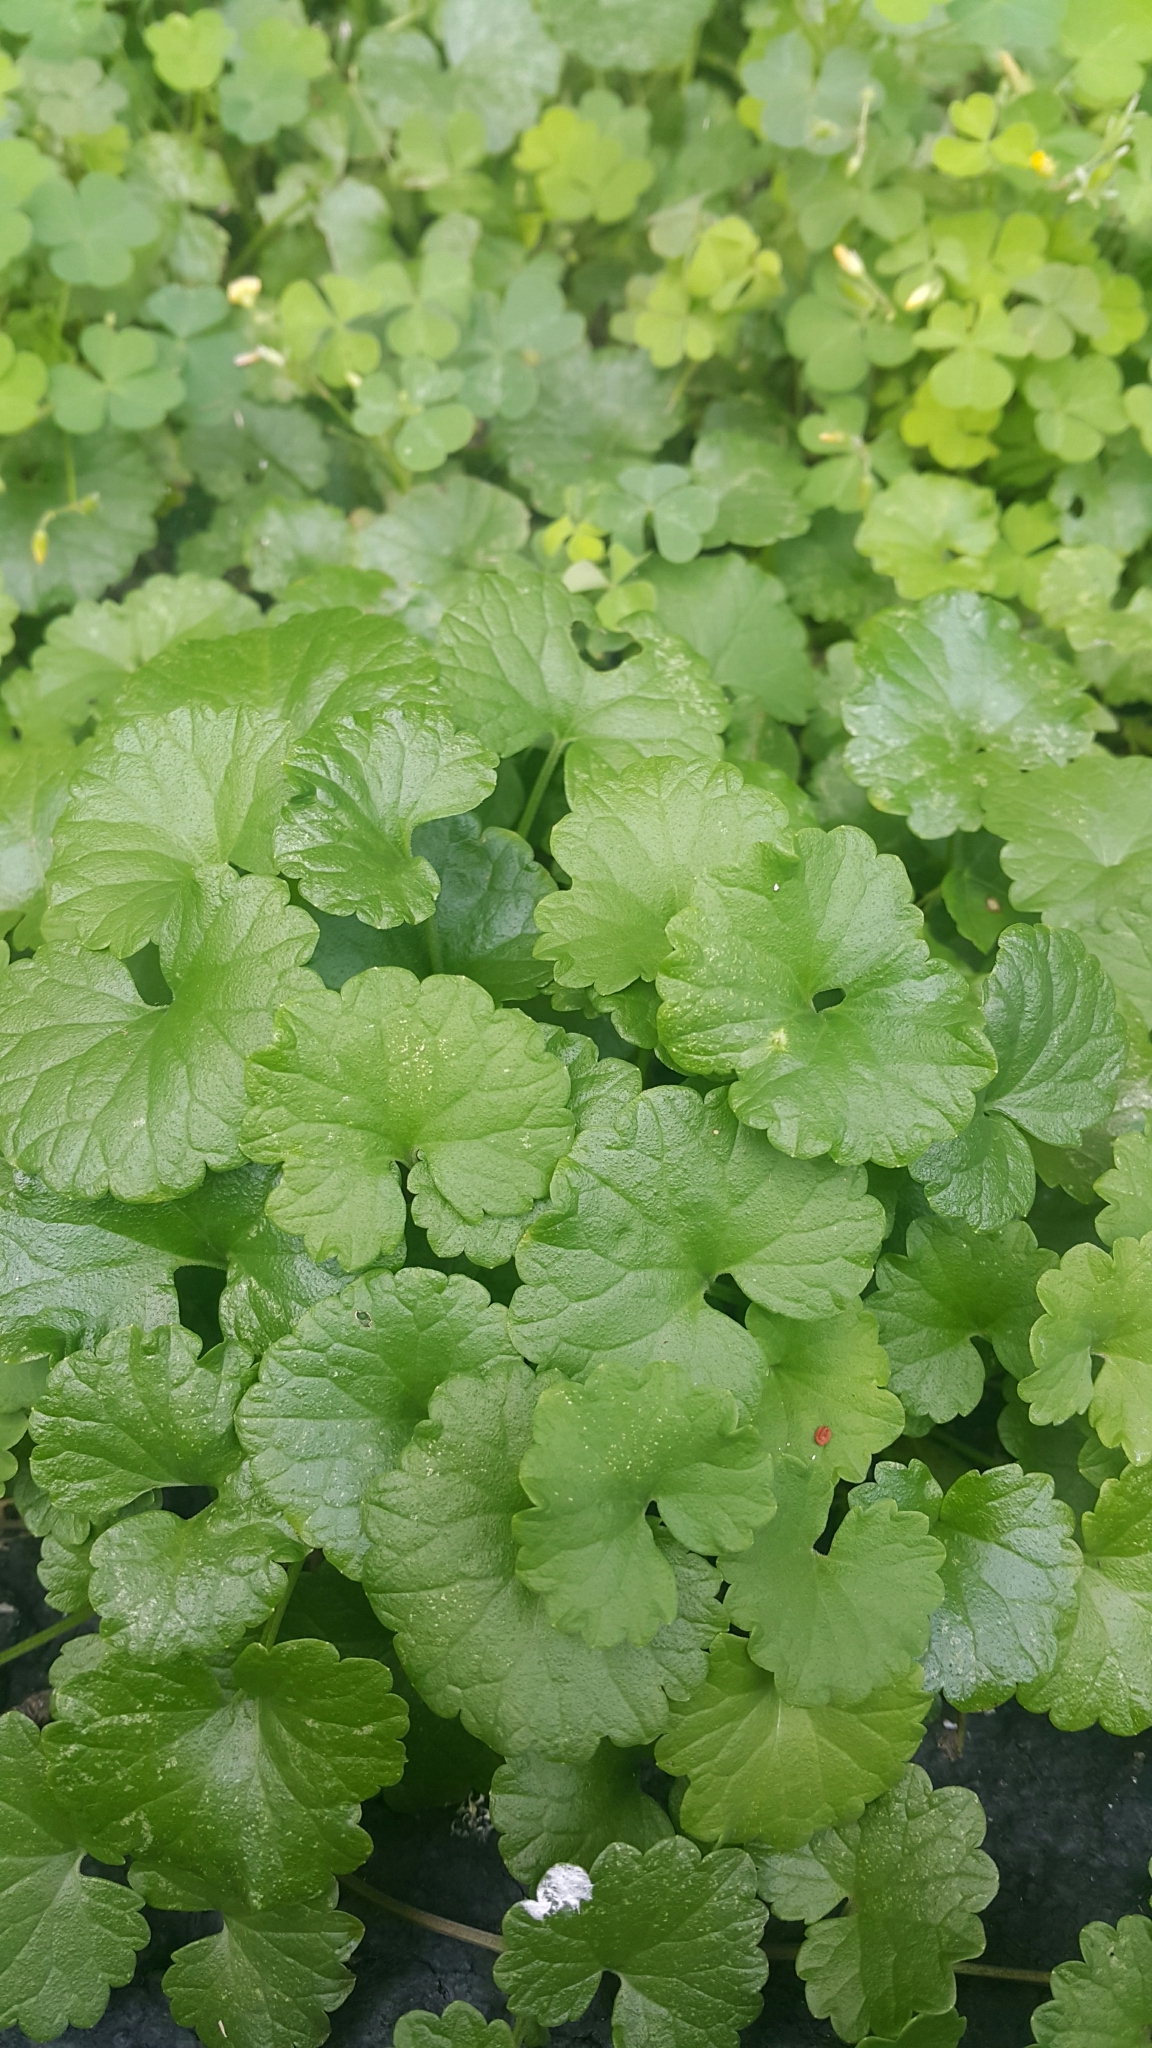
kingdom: Plantae
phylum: Tracheophyta
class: Magnoliopsida
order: Lamiales
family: Lamiaceae
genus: Glechoma
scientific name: Glechoma hederacea
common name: Ground ivy
